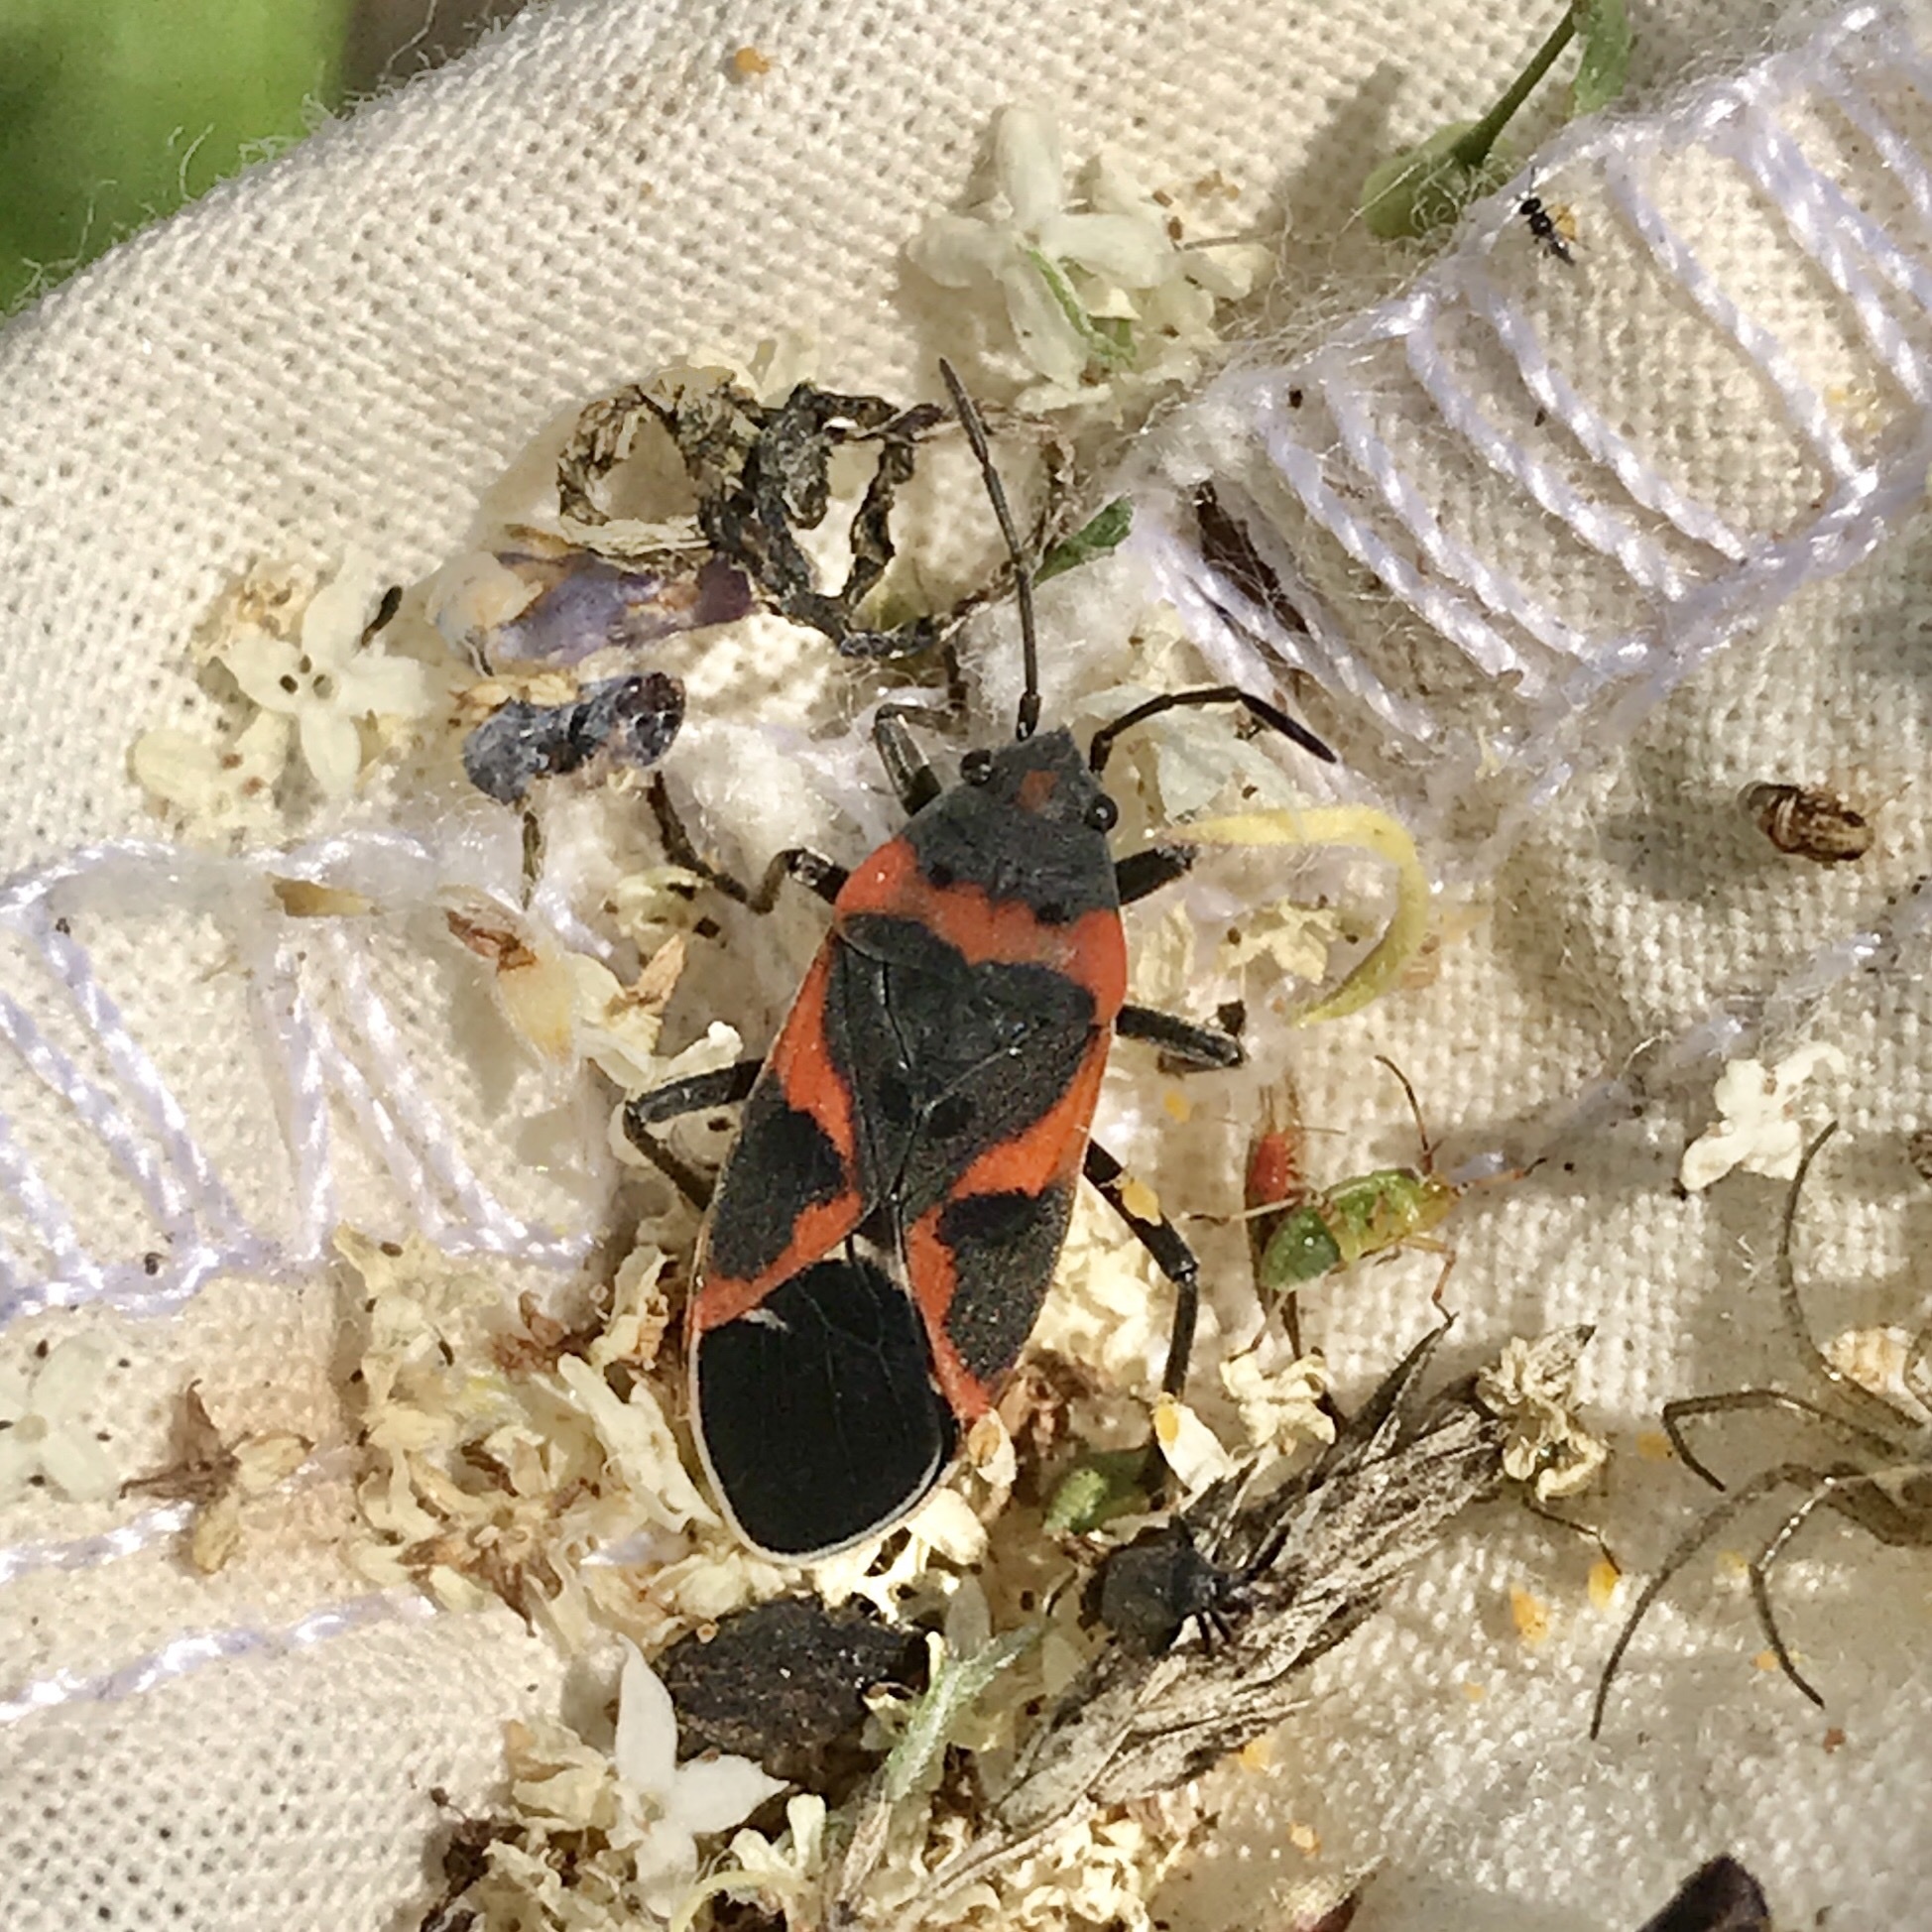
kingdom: Animalia
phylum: Arthropoda
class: Insecta
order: Hemiptera
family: Lygaeidae
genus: Lygaeus
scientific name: Lygaeus kalmii
